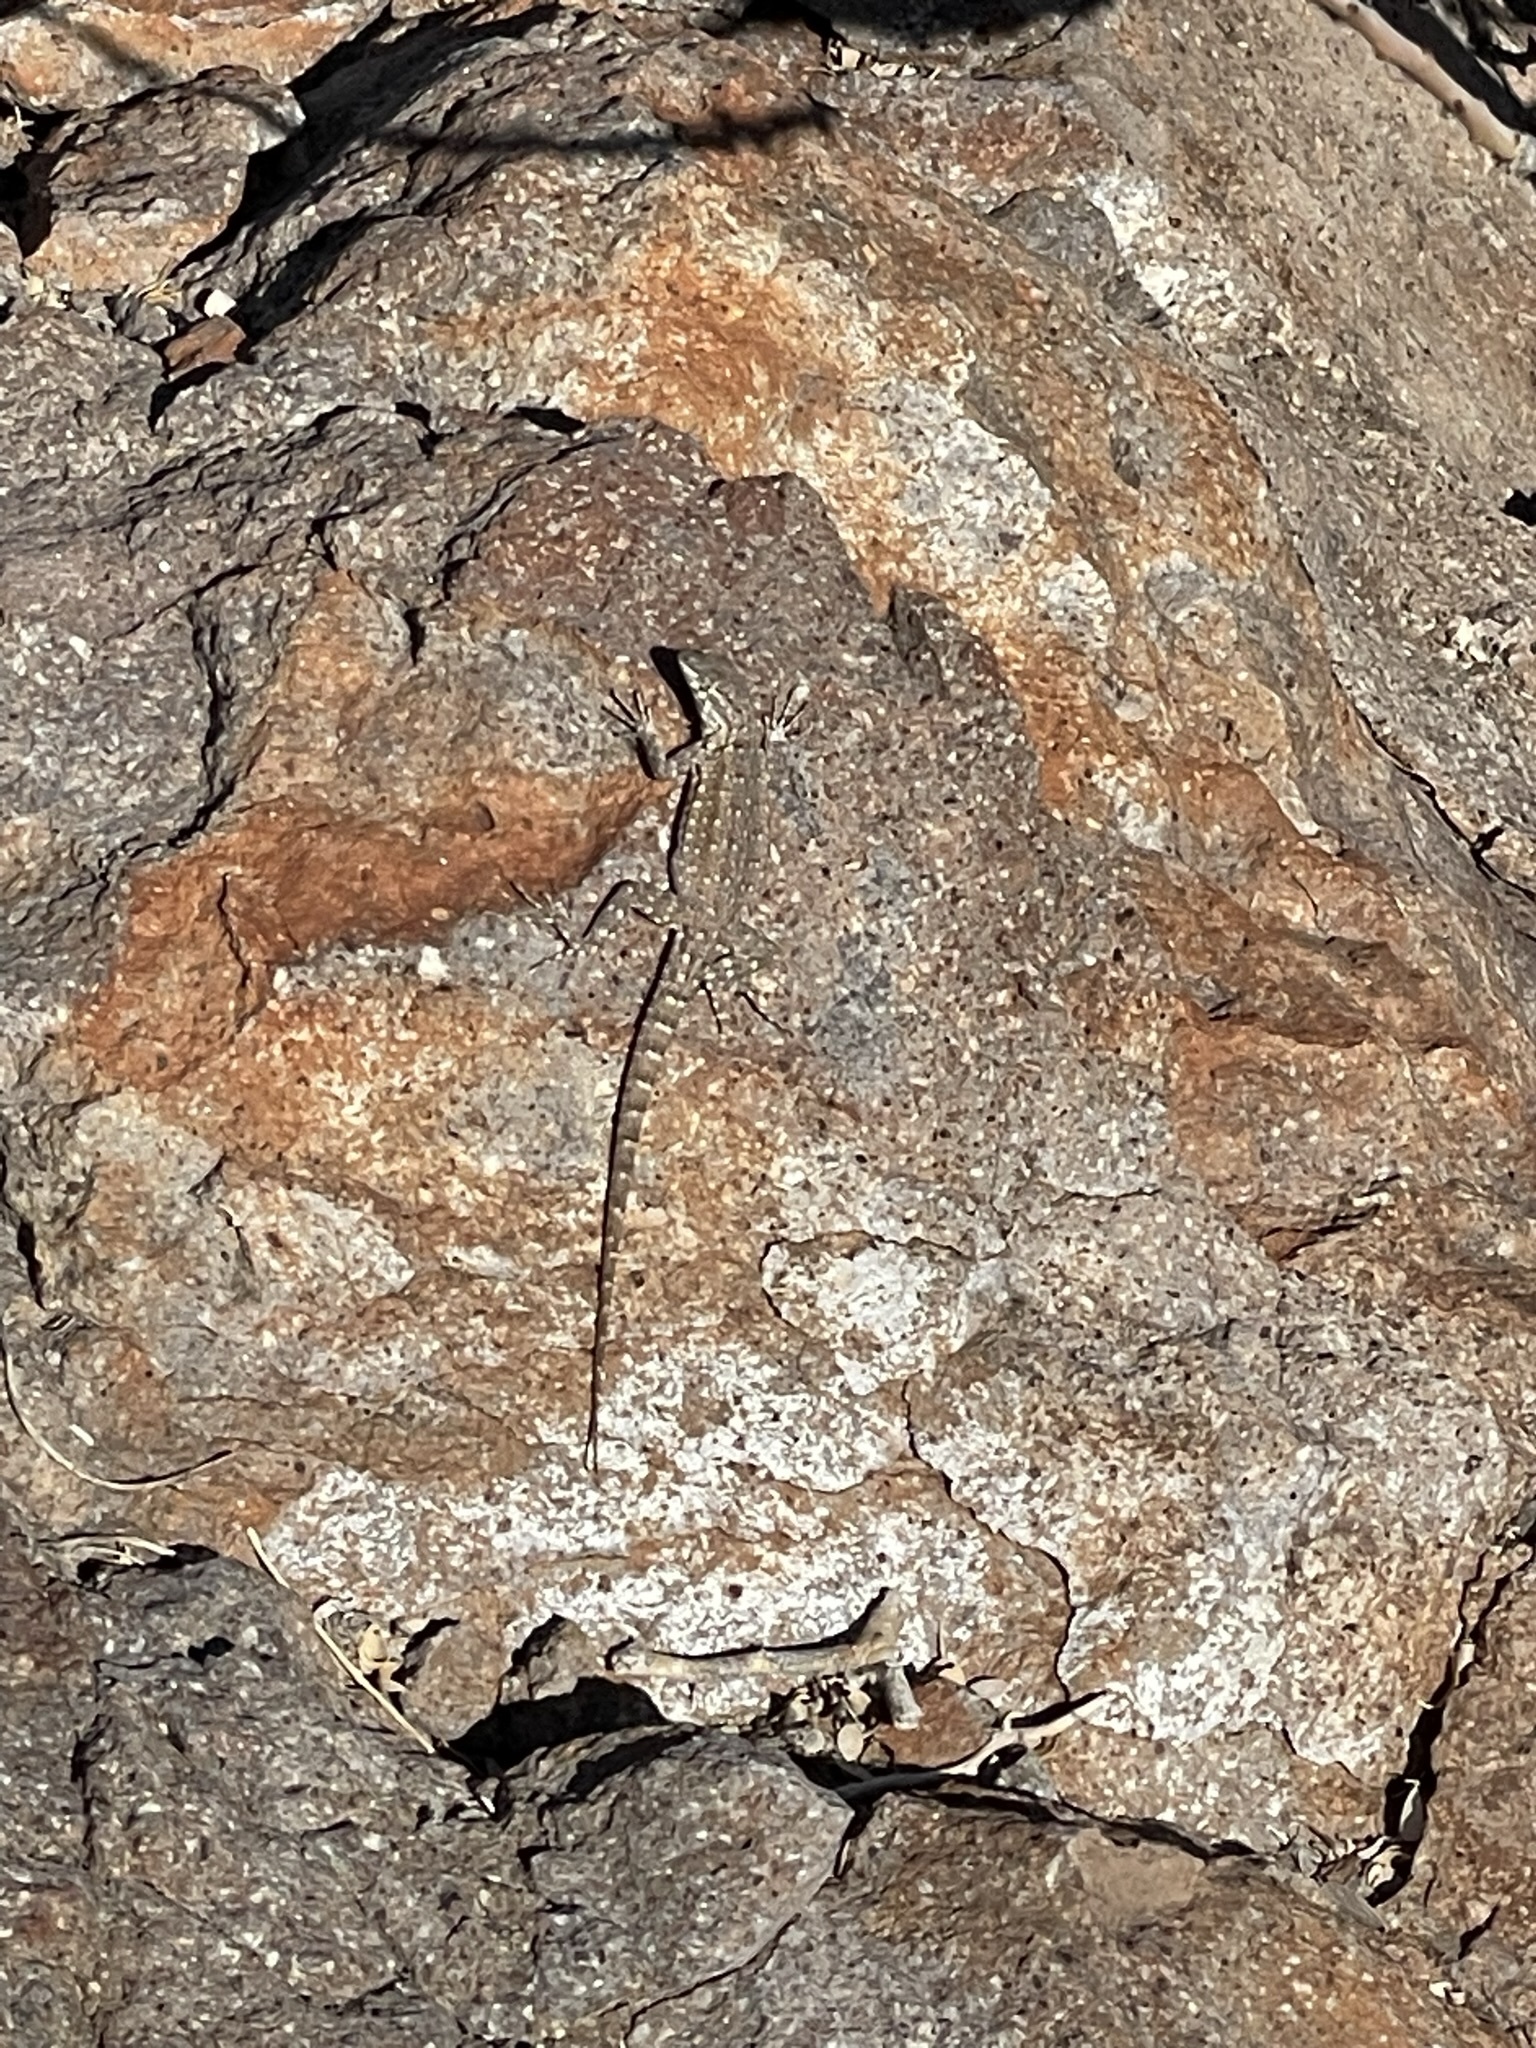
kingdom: Animalia
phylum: Chordata
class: Squamata
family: Phrynosomatidae
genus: Uta
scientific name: Uta stansburiana
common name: Side-blotched lizard
